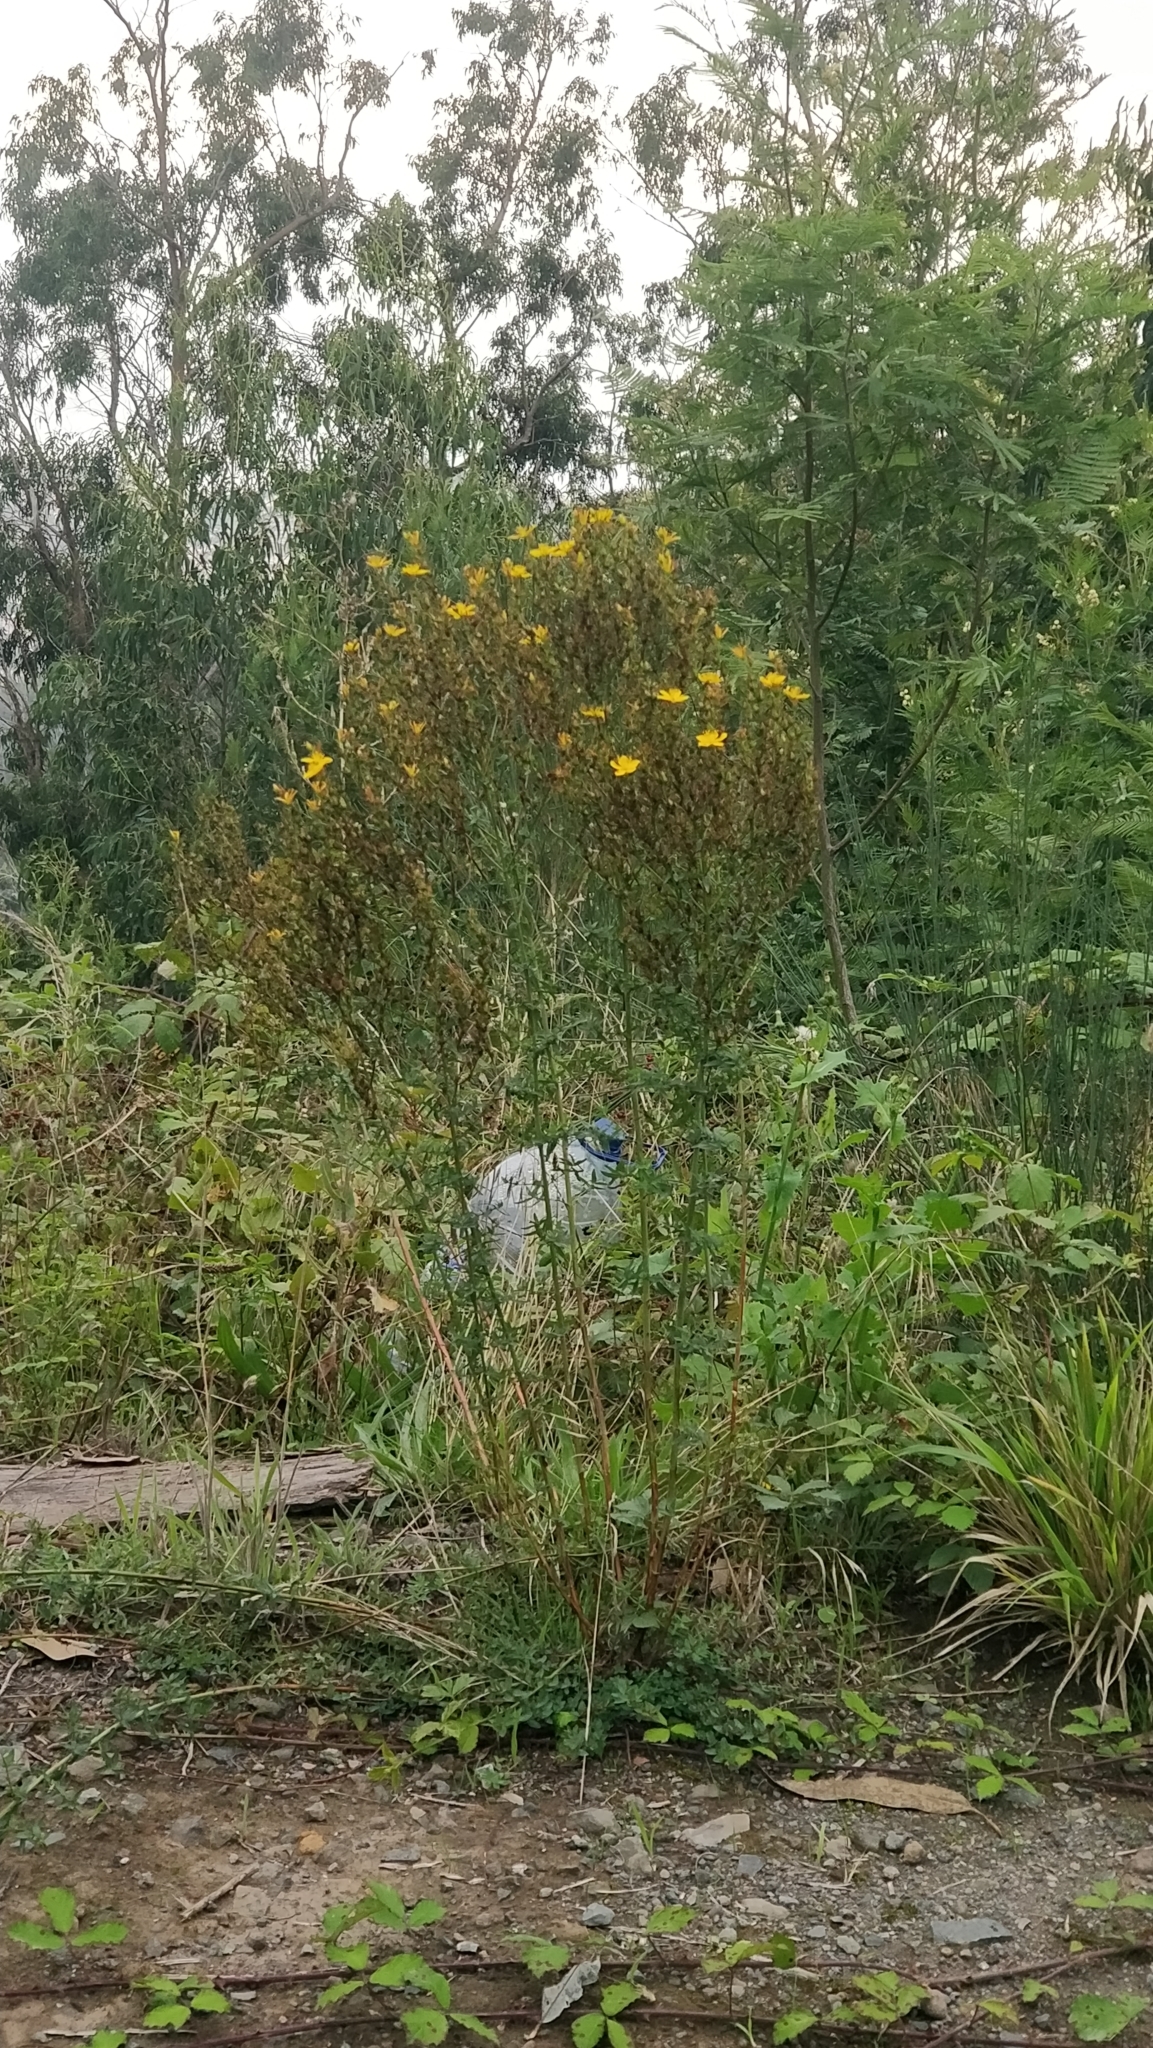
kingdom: Plantae
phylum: Tracheophyta
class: Magnoliopsida
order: Malpighiales
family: Hypericaceae
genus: Hypericum
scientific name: Hypericum perforatum
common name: Common st. johnswort
